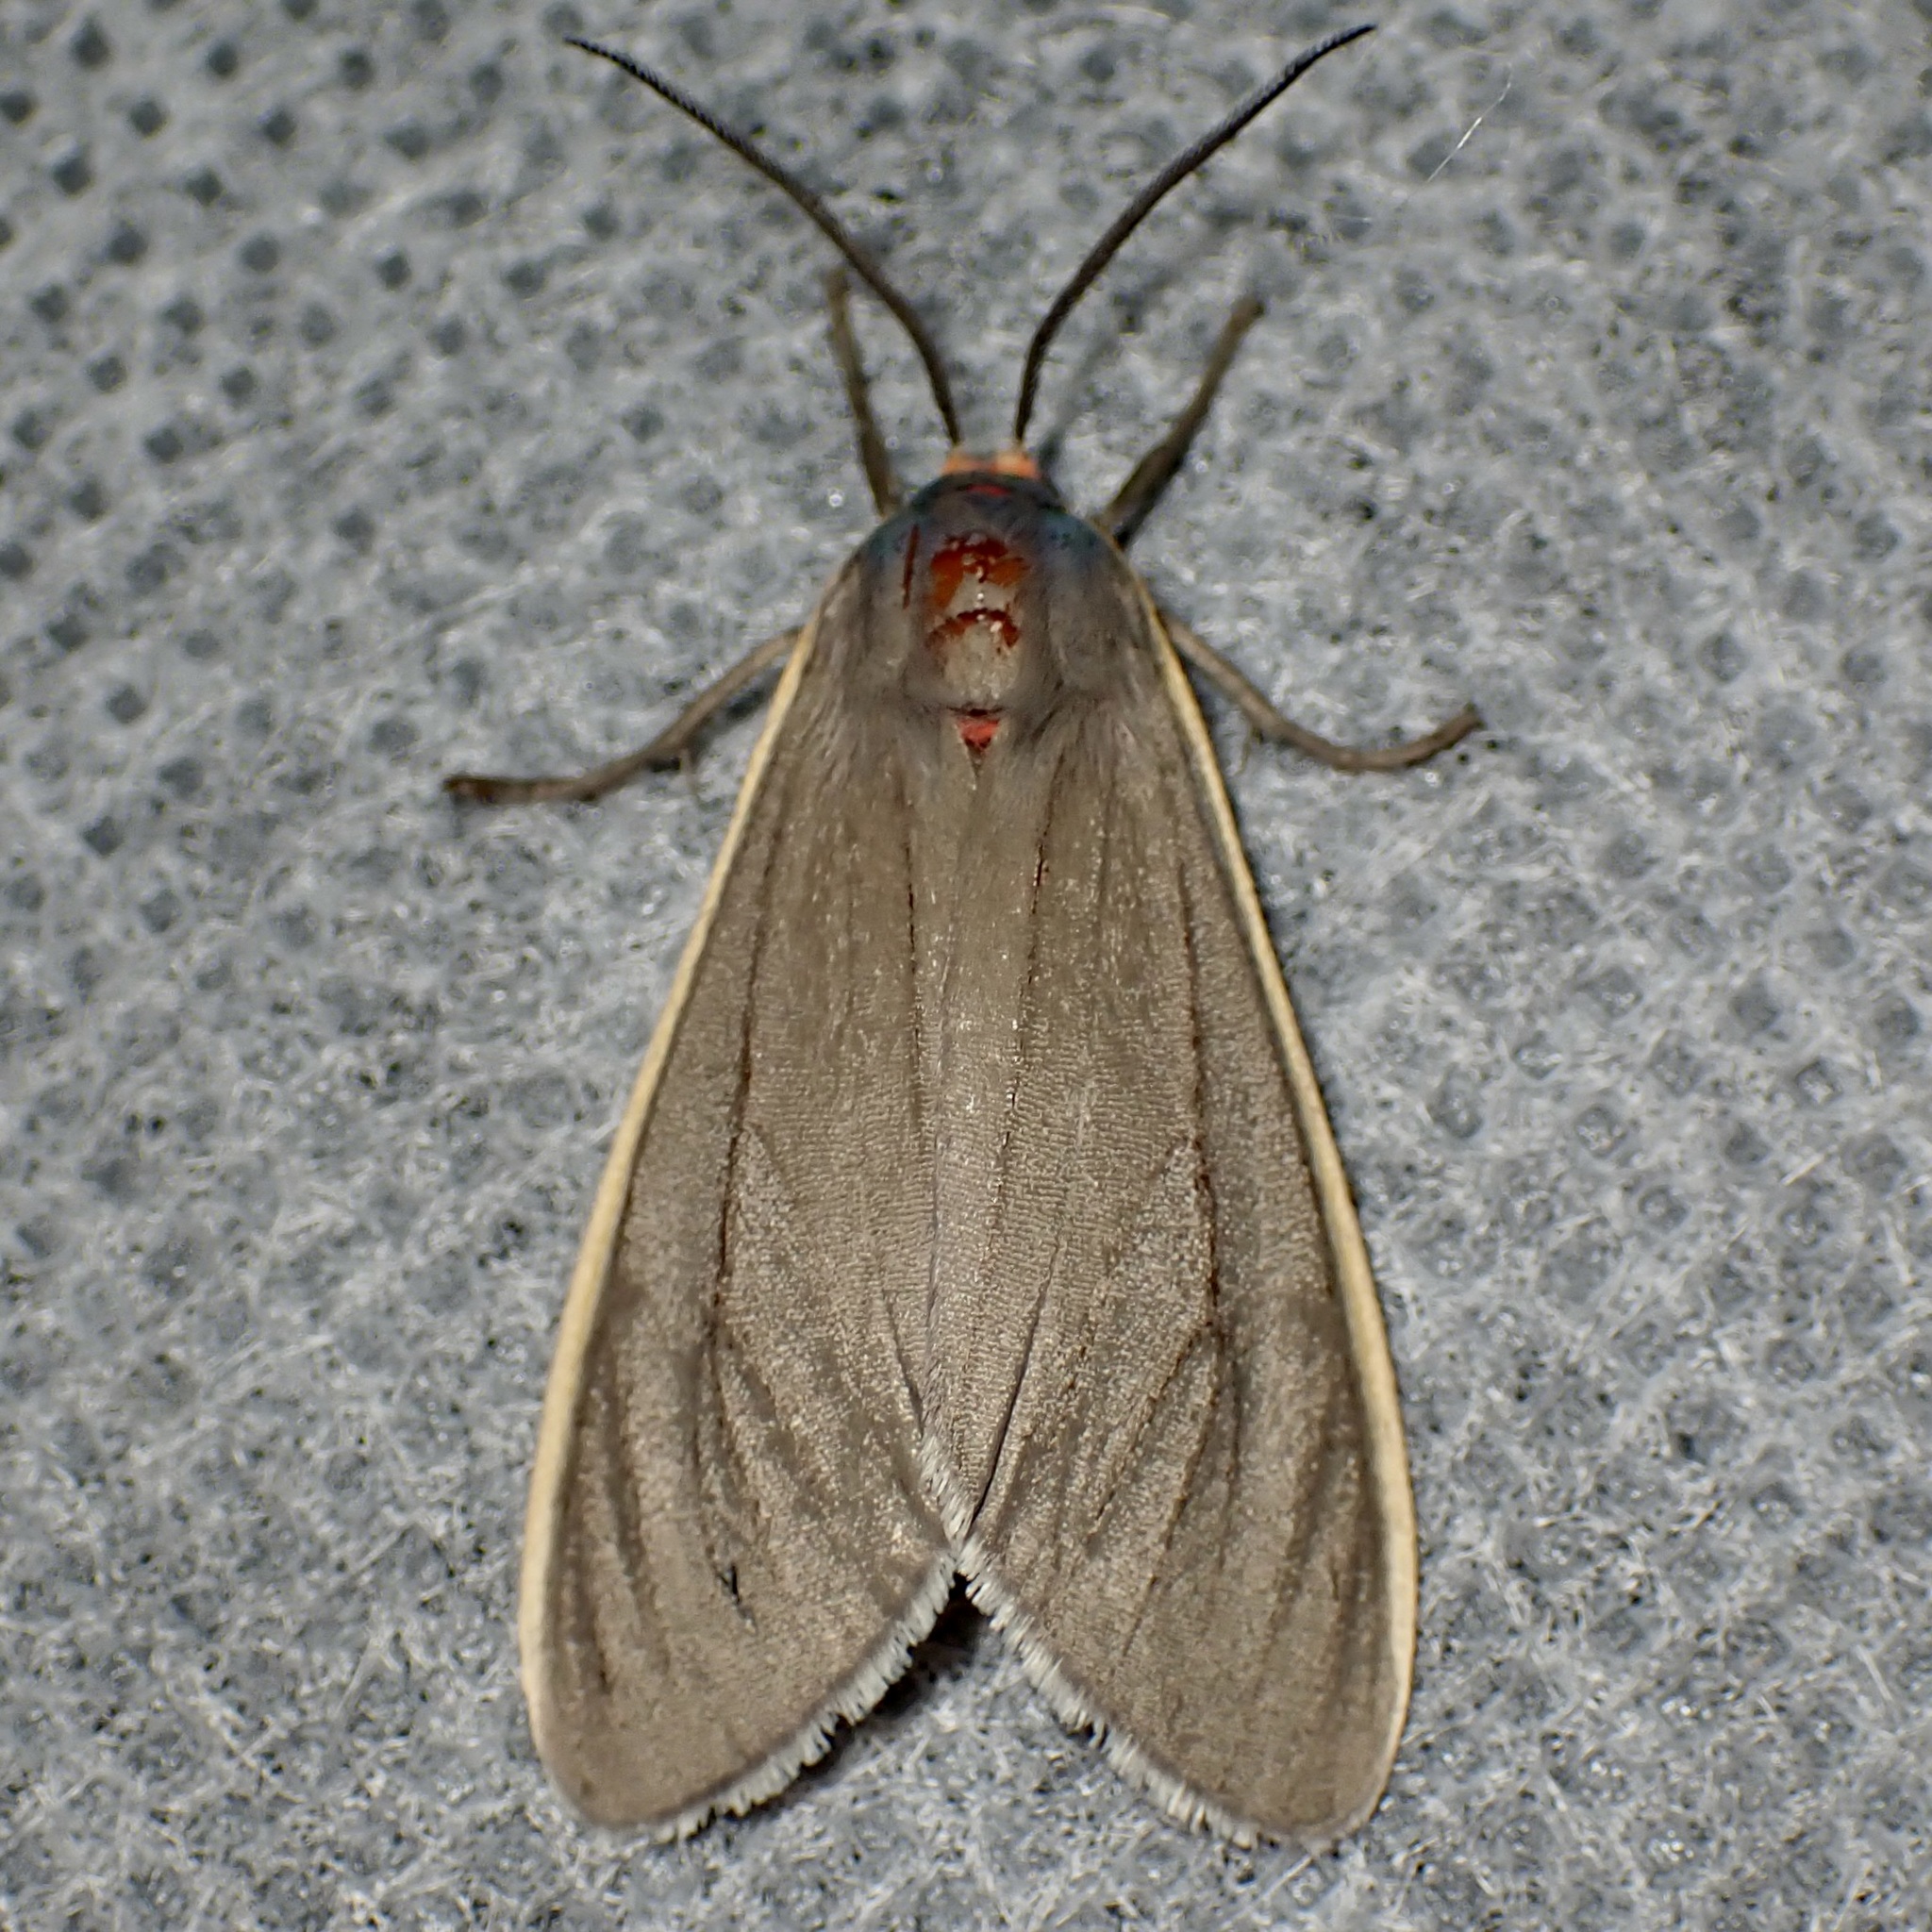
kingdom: Animalia
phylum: Arthropoda
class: Insecta
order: Lepidoptera
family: Erebidae
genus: Euchaetes
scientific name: Euchaetes antica
